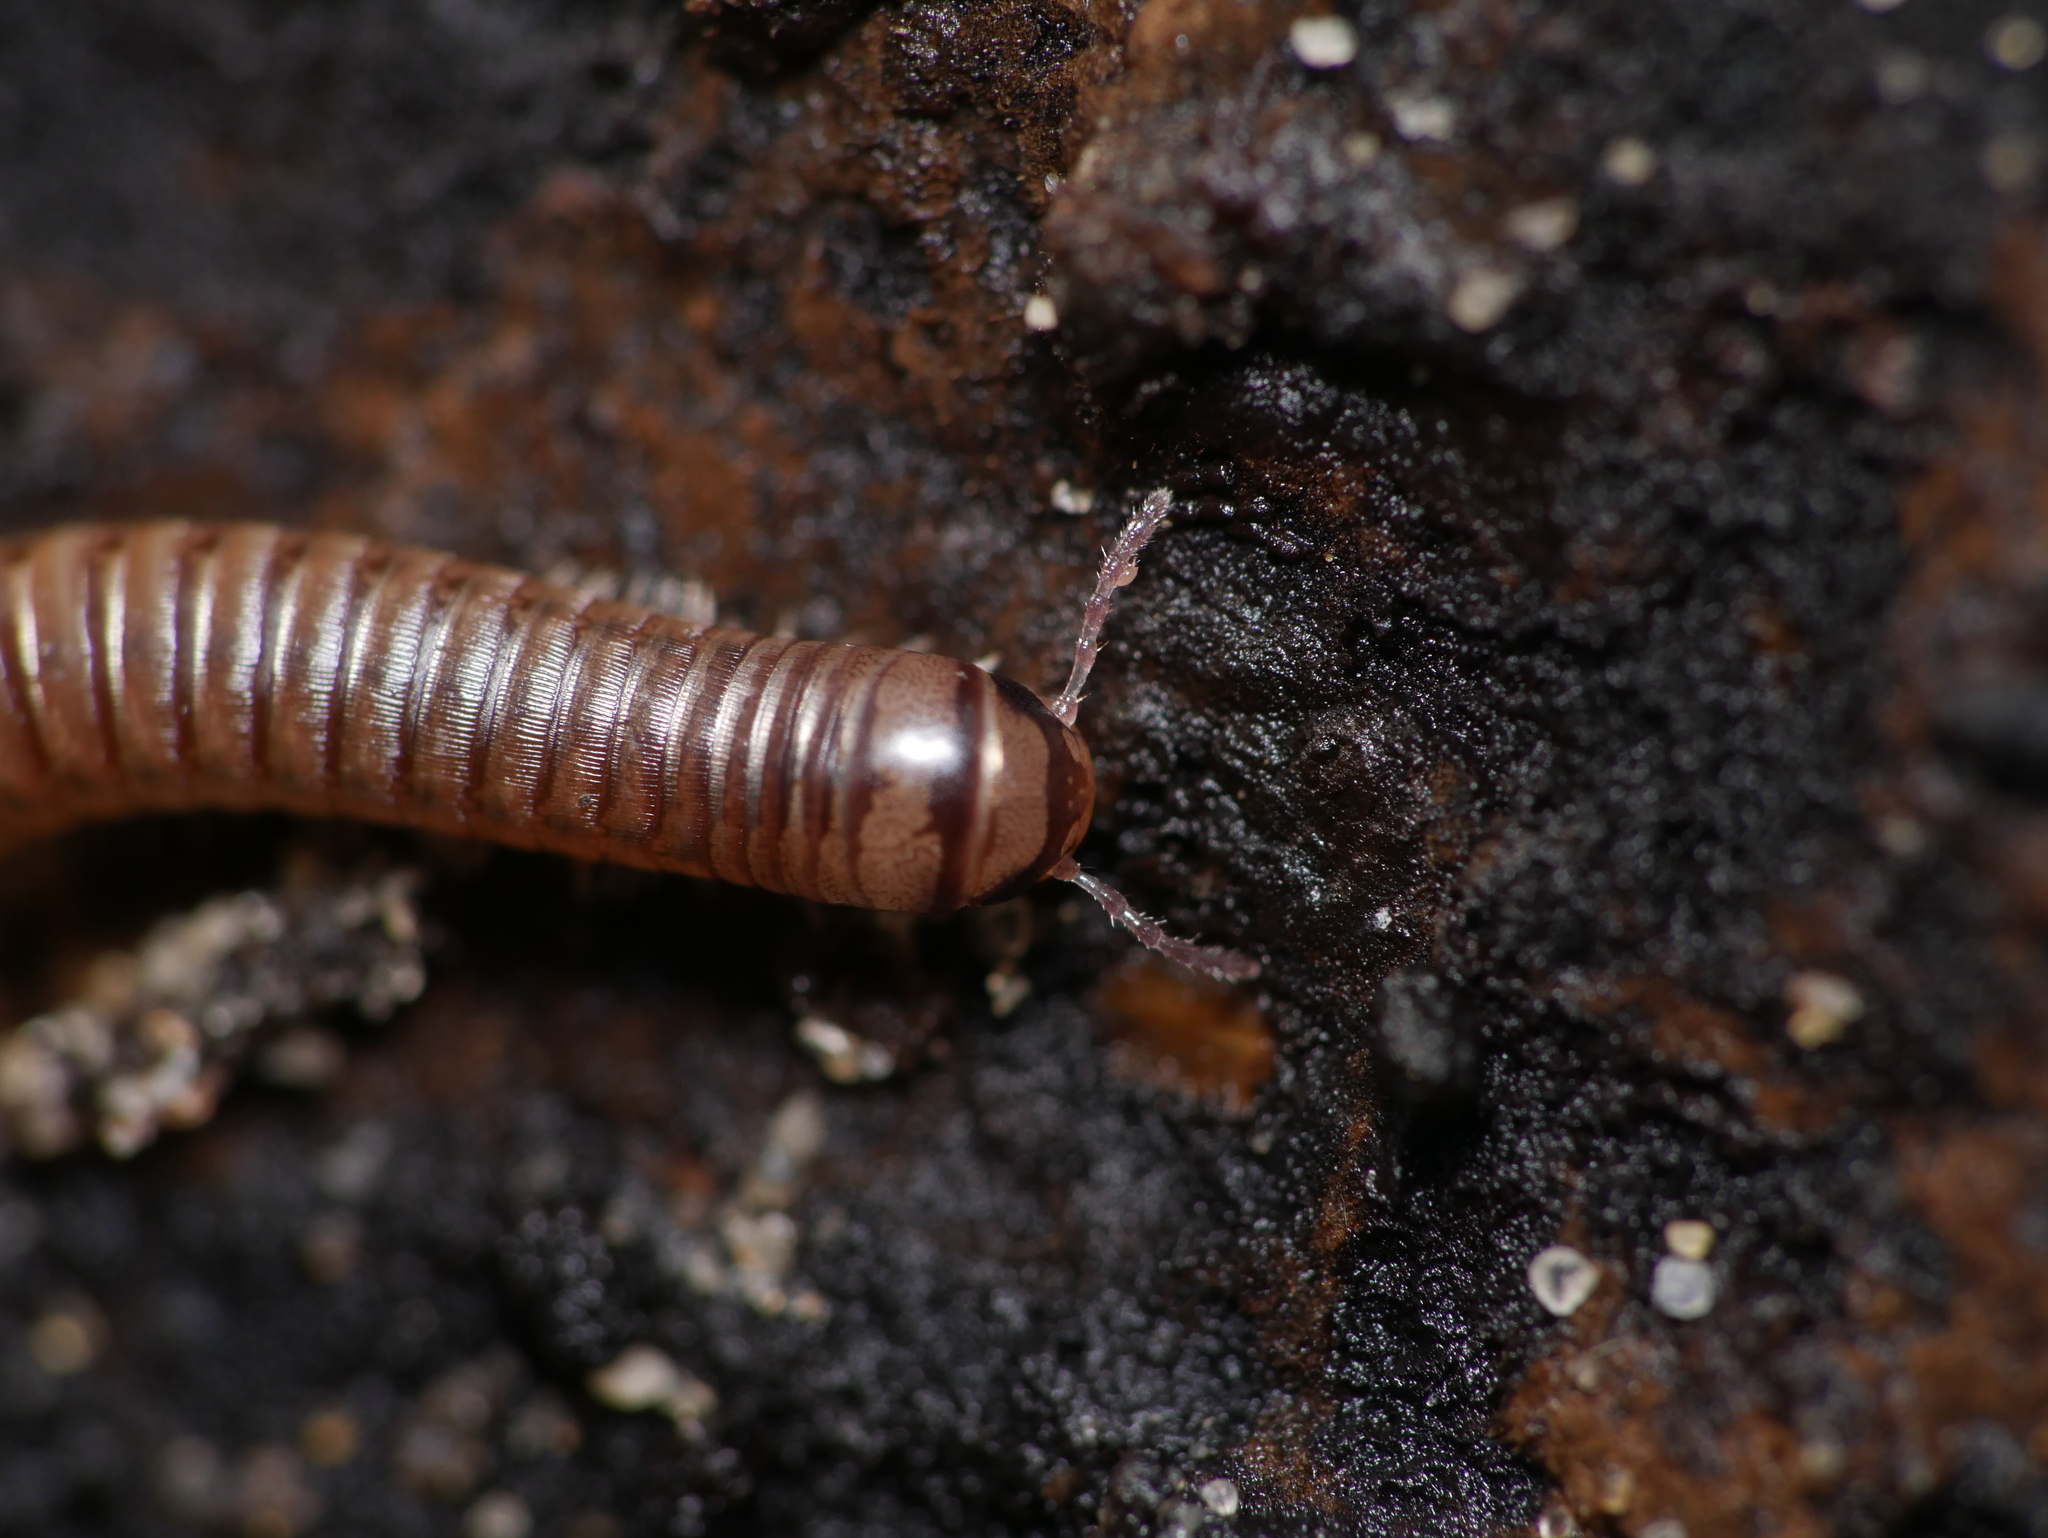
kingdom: Animalia
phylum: Arthropoda
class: Diplopoda
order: Julida
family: Julidae
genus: Cylindroiulus
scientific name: Cylindroiulus punctatus
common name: Blunt-tailed millipede
